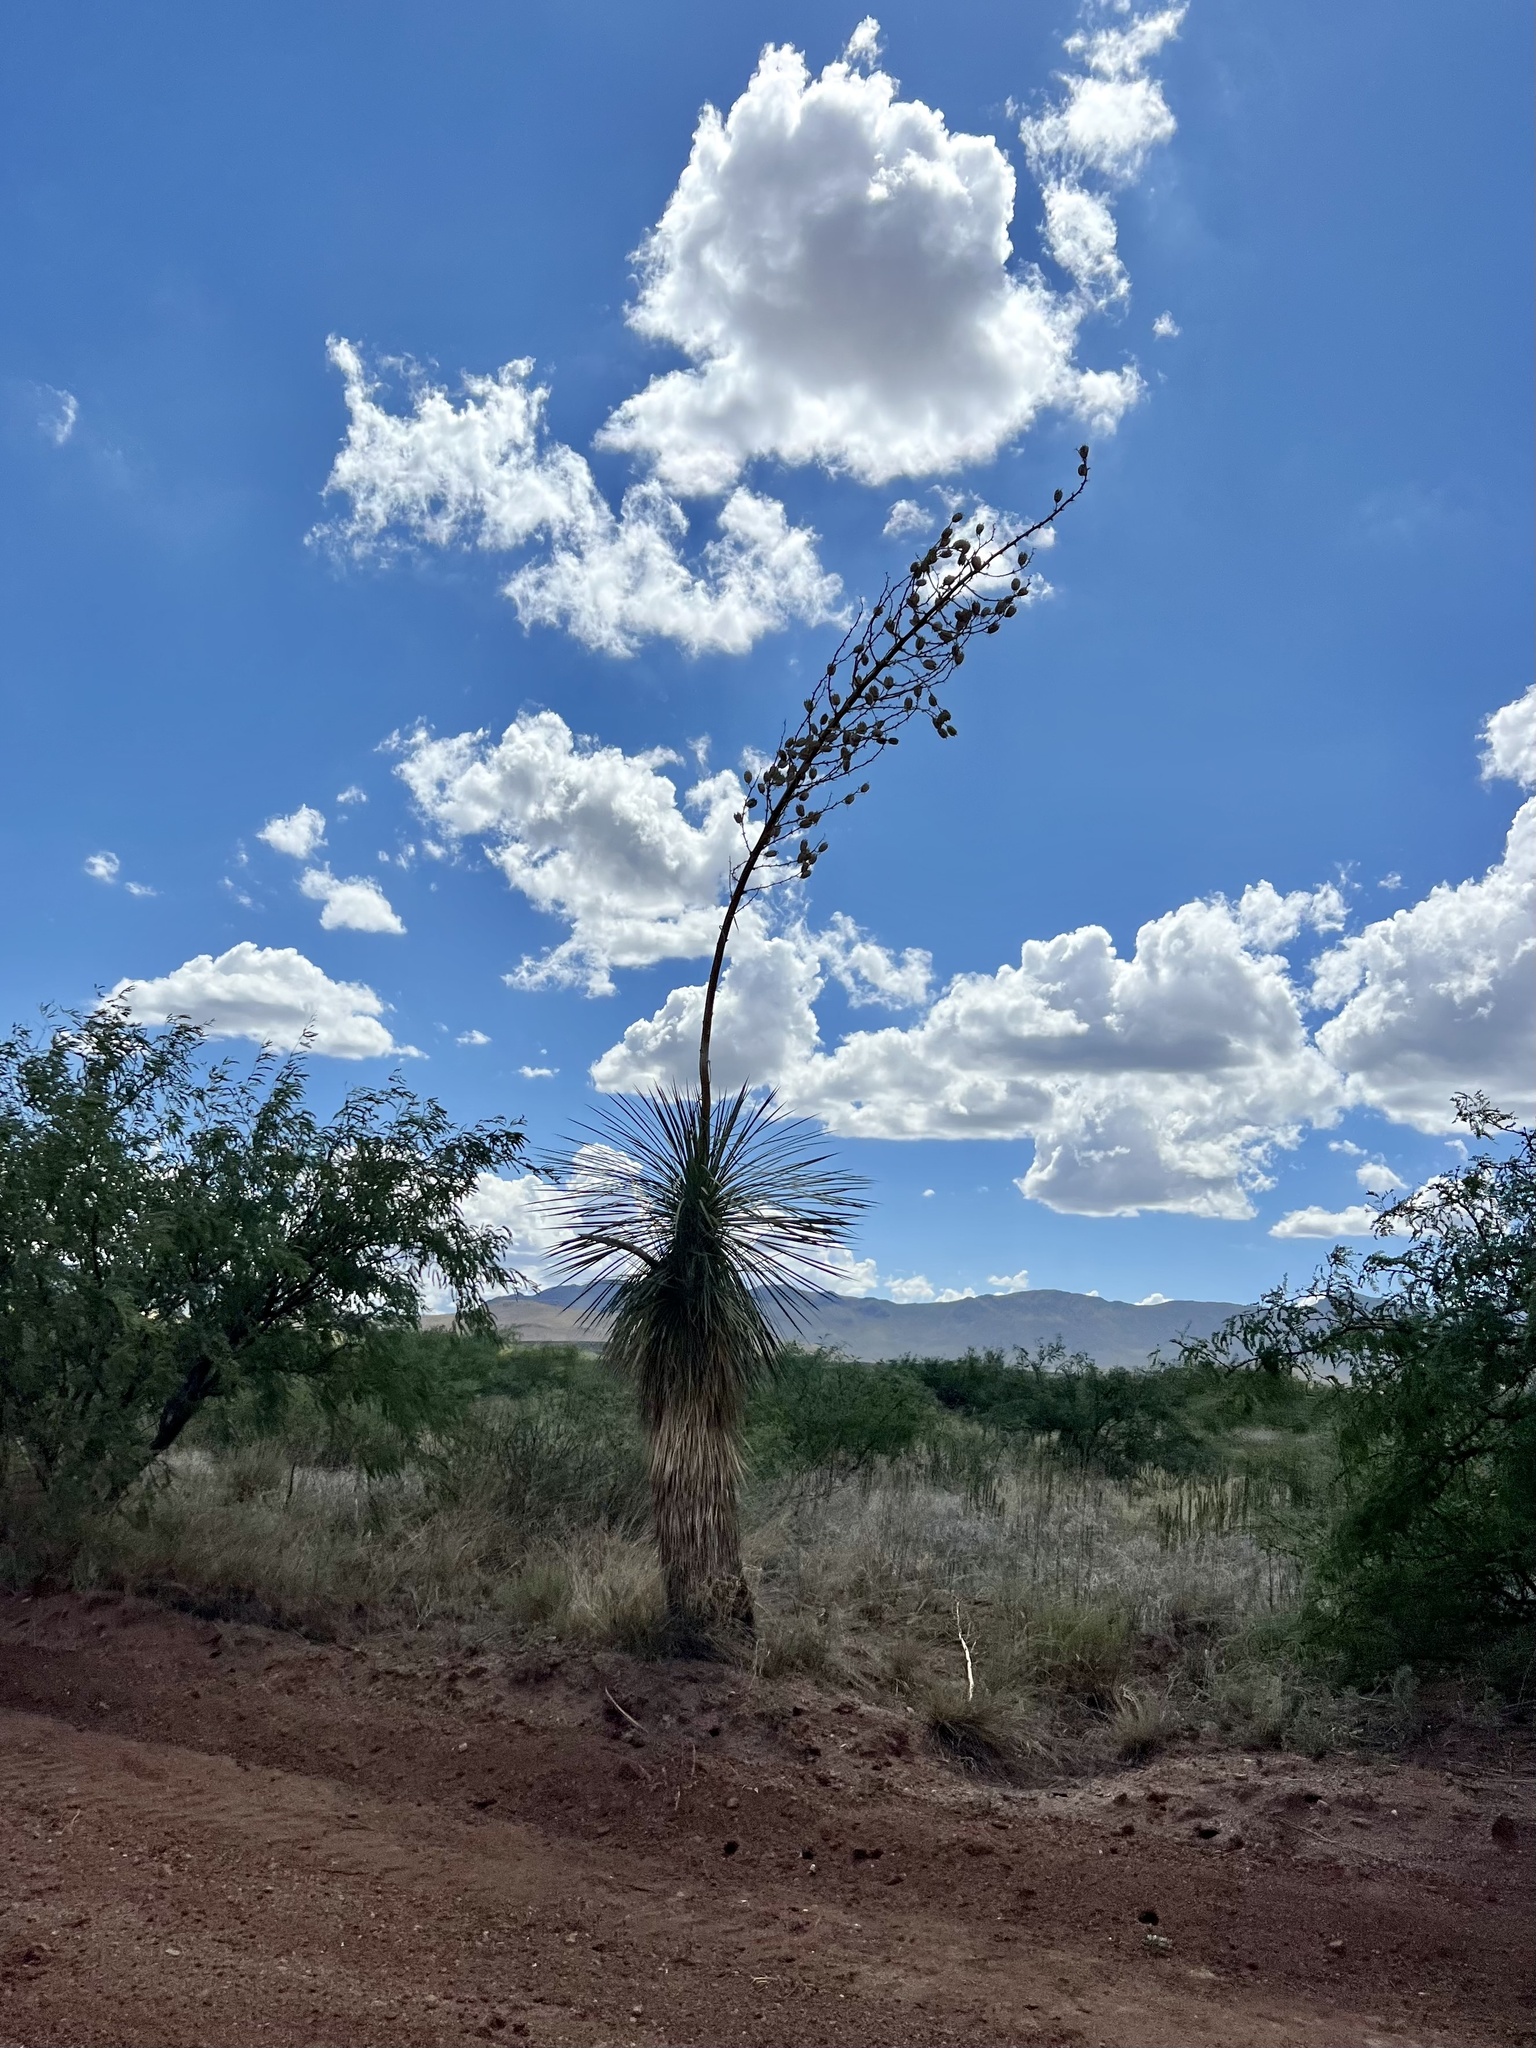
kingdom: Plantae
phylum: Tracheophyta
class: Liliopsida
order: Asparagales
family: Asparagaceae
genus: Yucca
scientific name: Yucca elata
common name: Palmella
